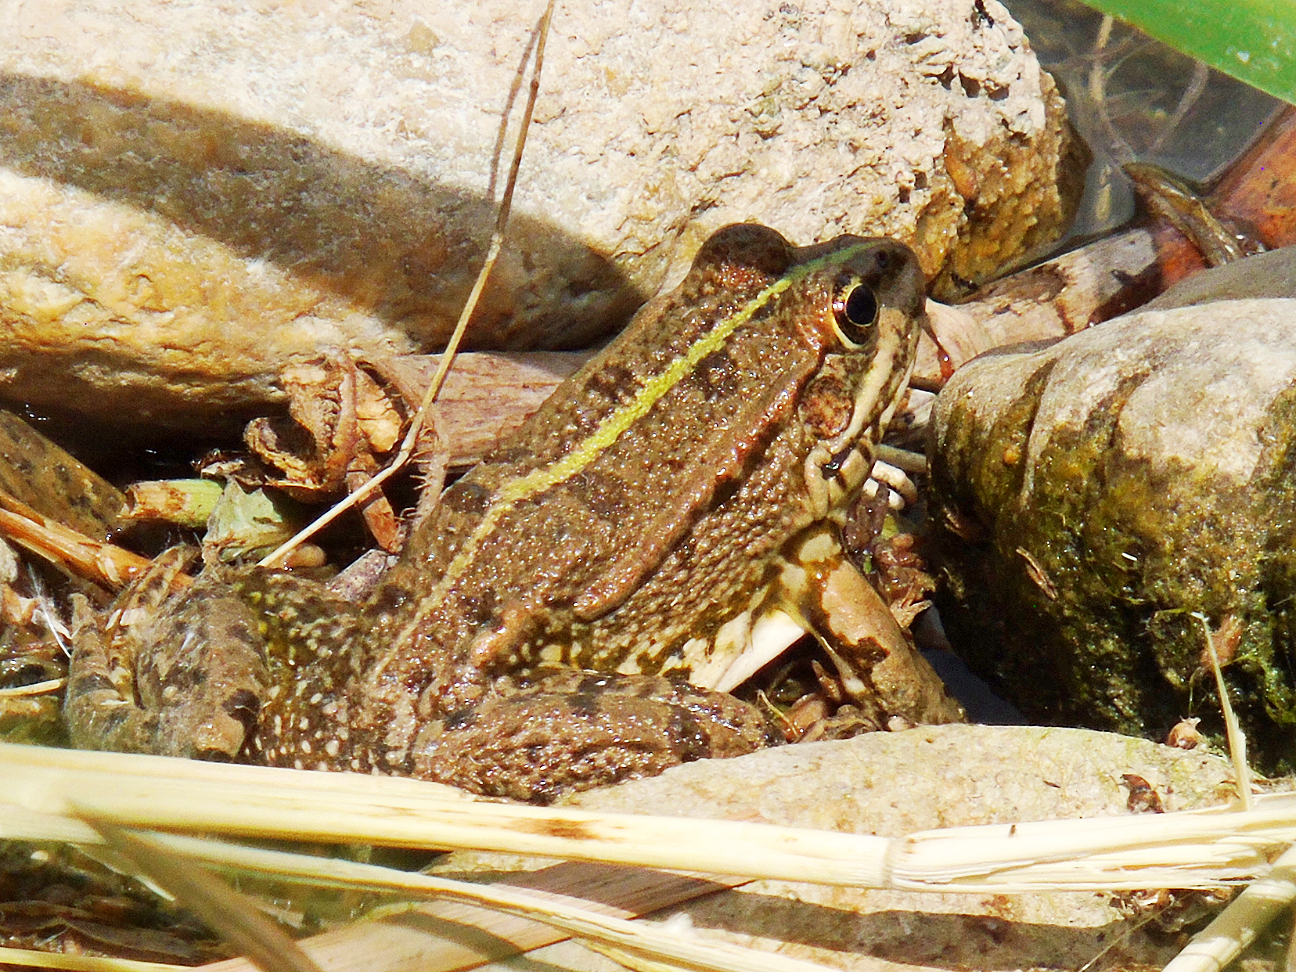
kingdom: Animalia
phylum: Chordata
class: Amphibia
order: Anura
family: Ranidae
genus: Pelophylax
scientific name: Pelophylax ridibundus
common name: Marsh frog
